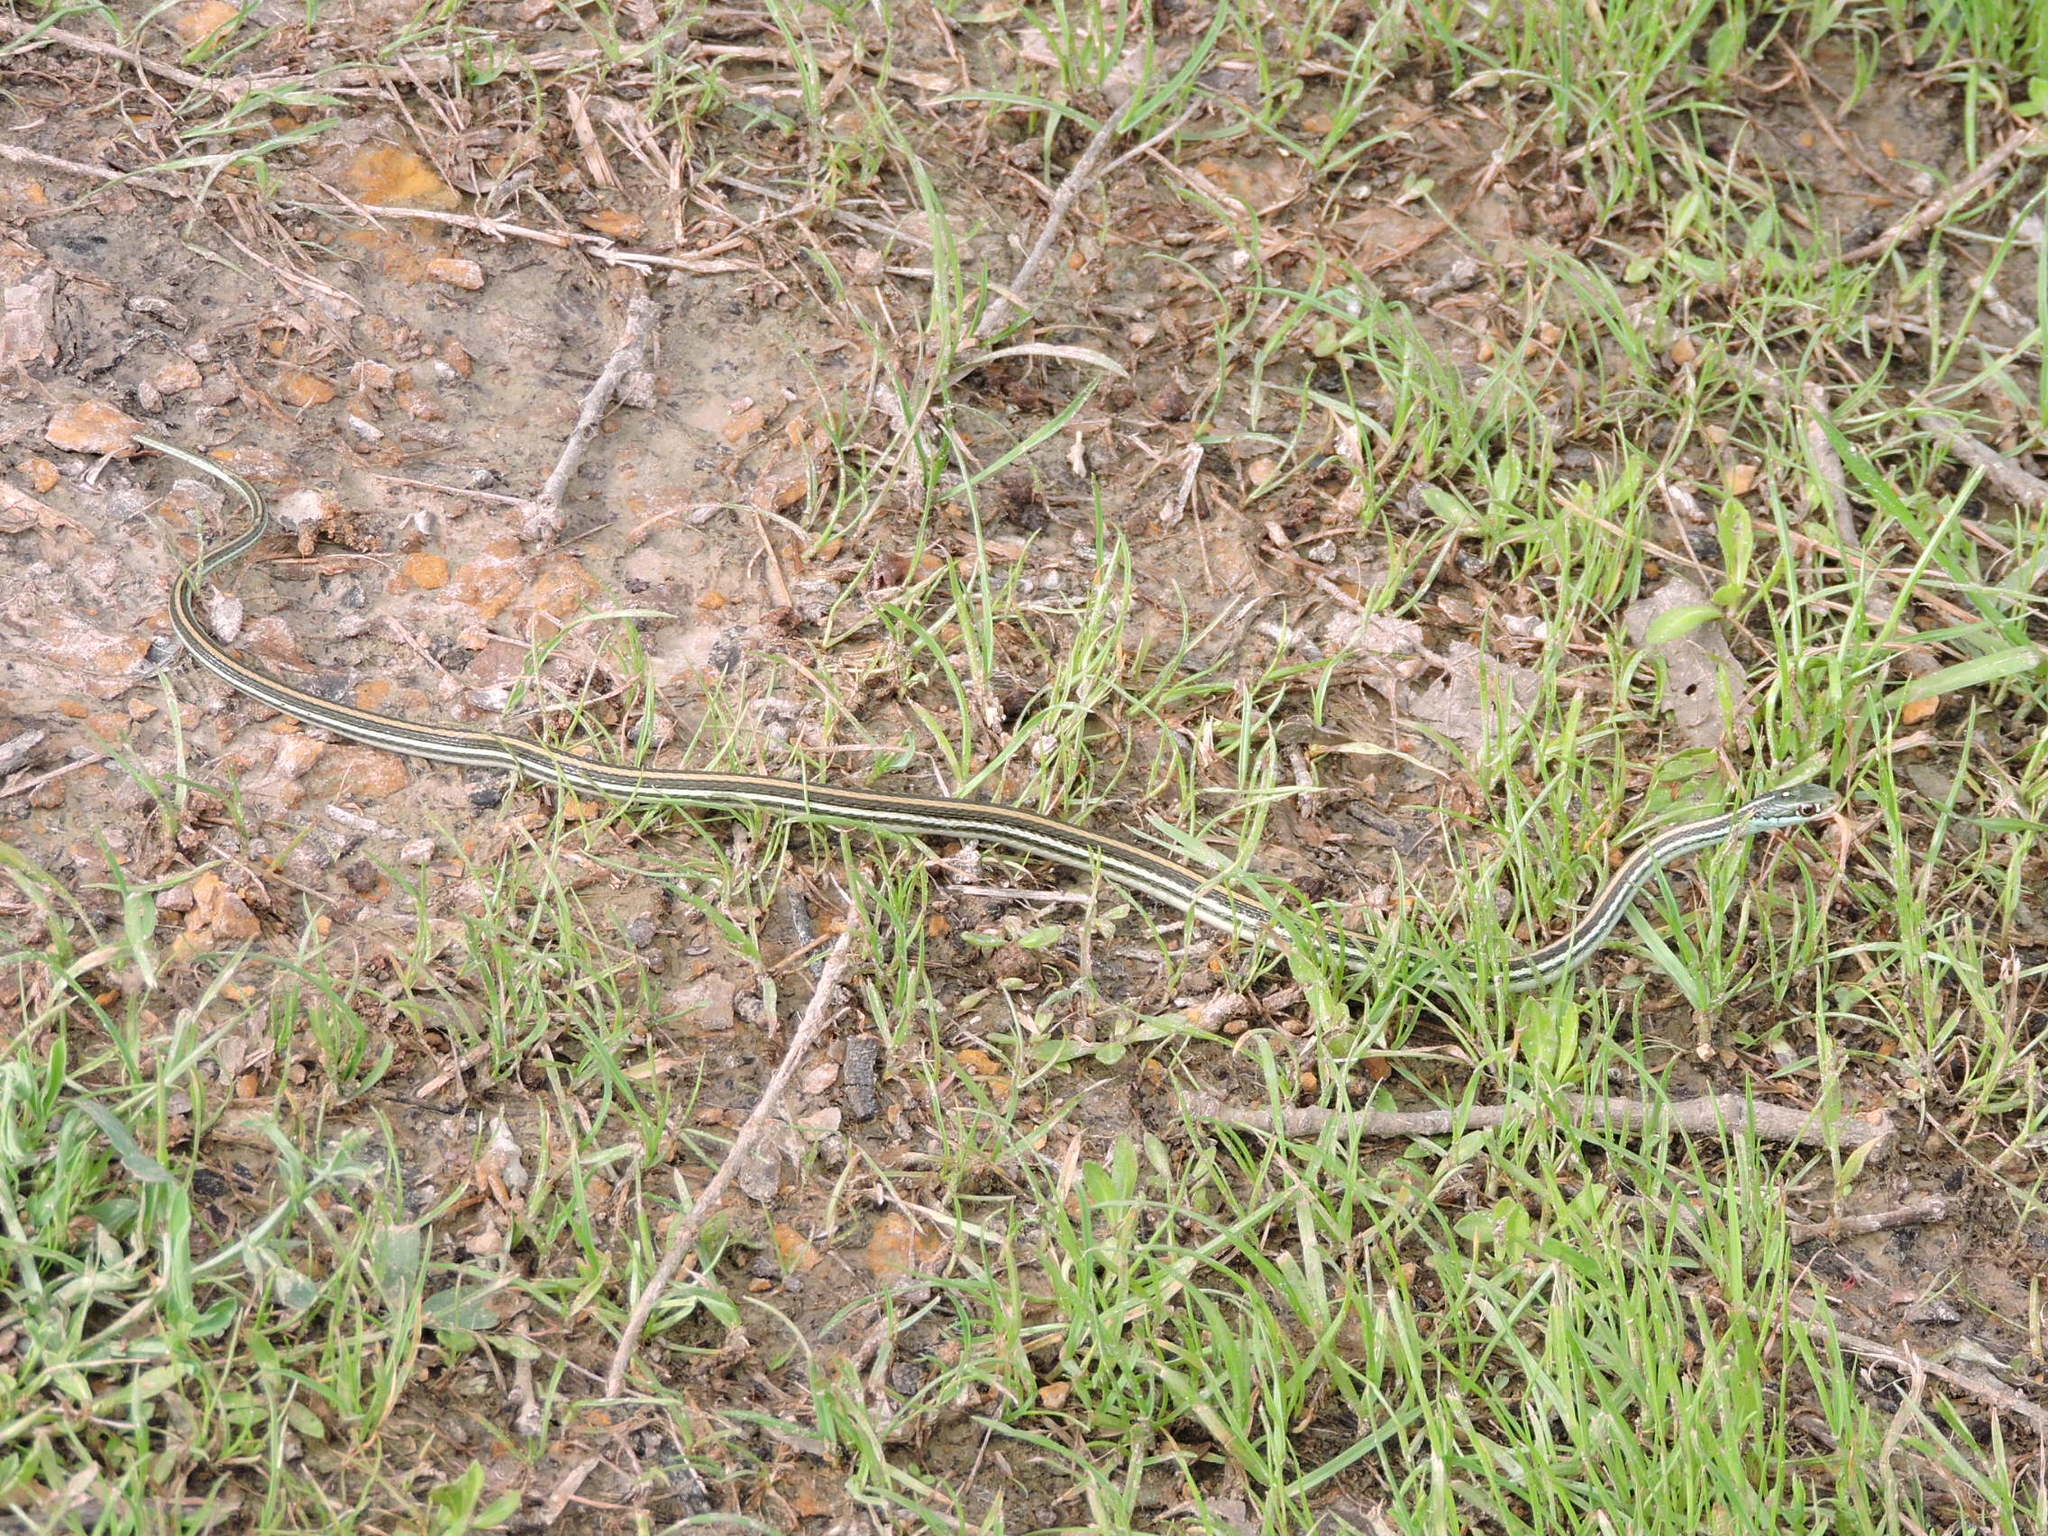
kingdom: Animalia
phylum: Chordata
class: Squamata
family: Colubridae
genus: Thamnophis
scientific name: Thamnophis proximus
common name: Western ribbon snake
